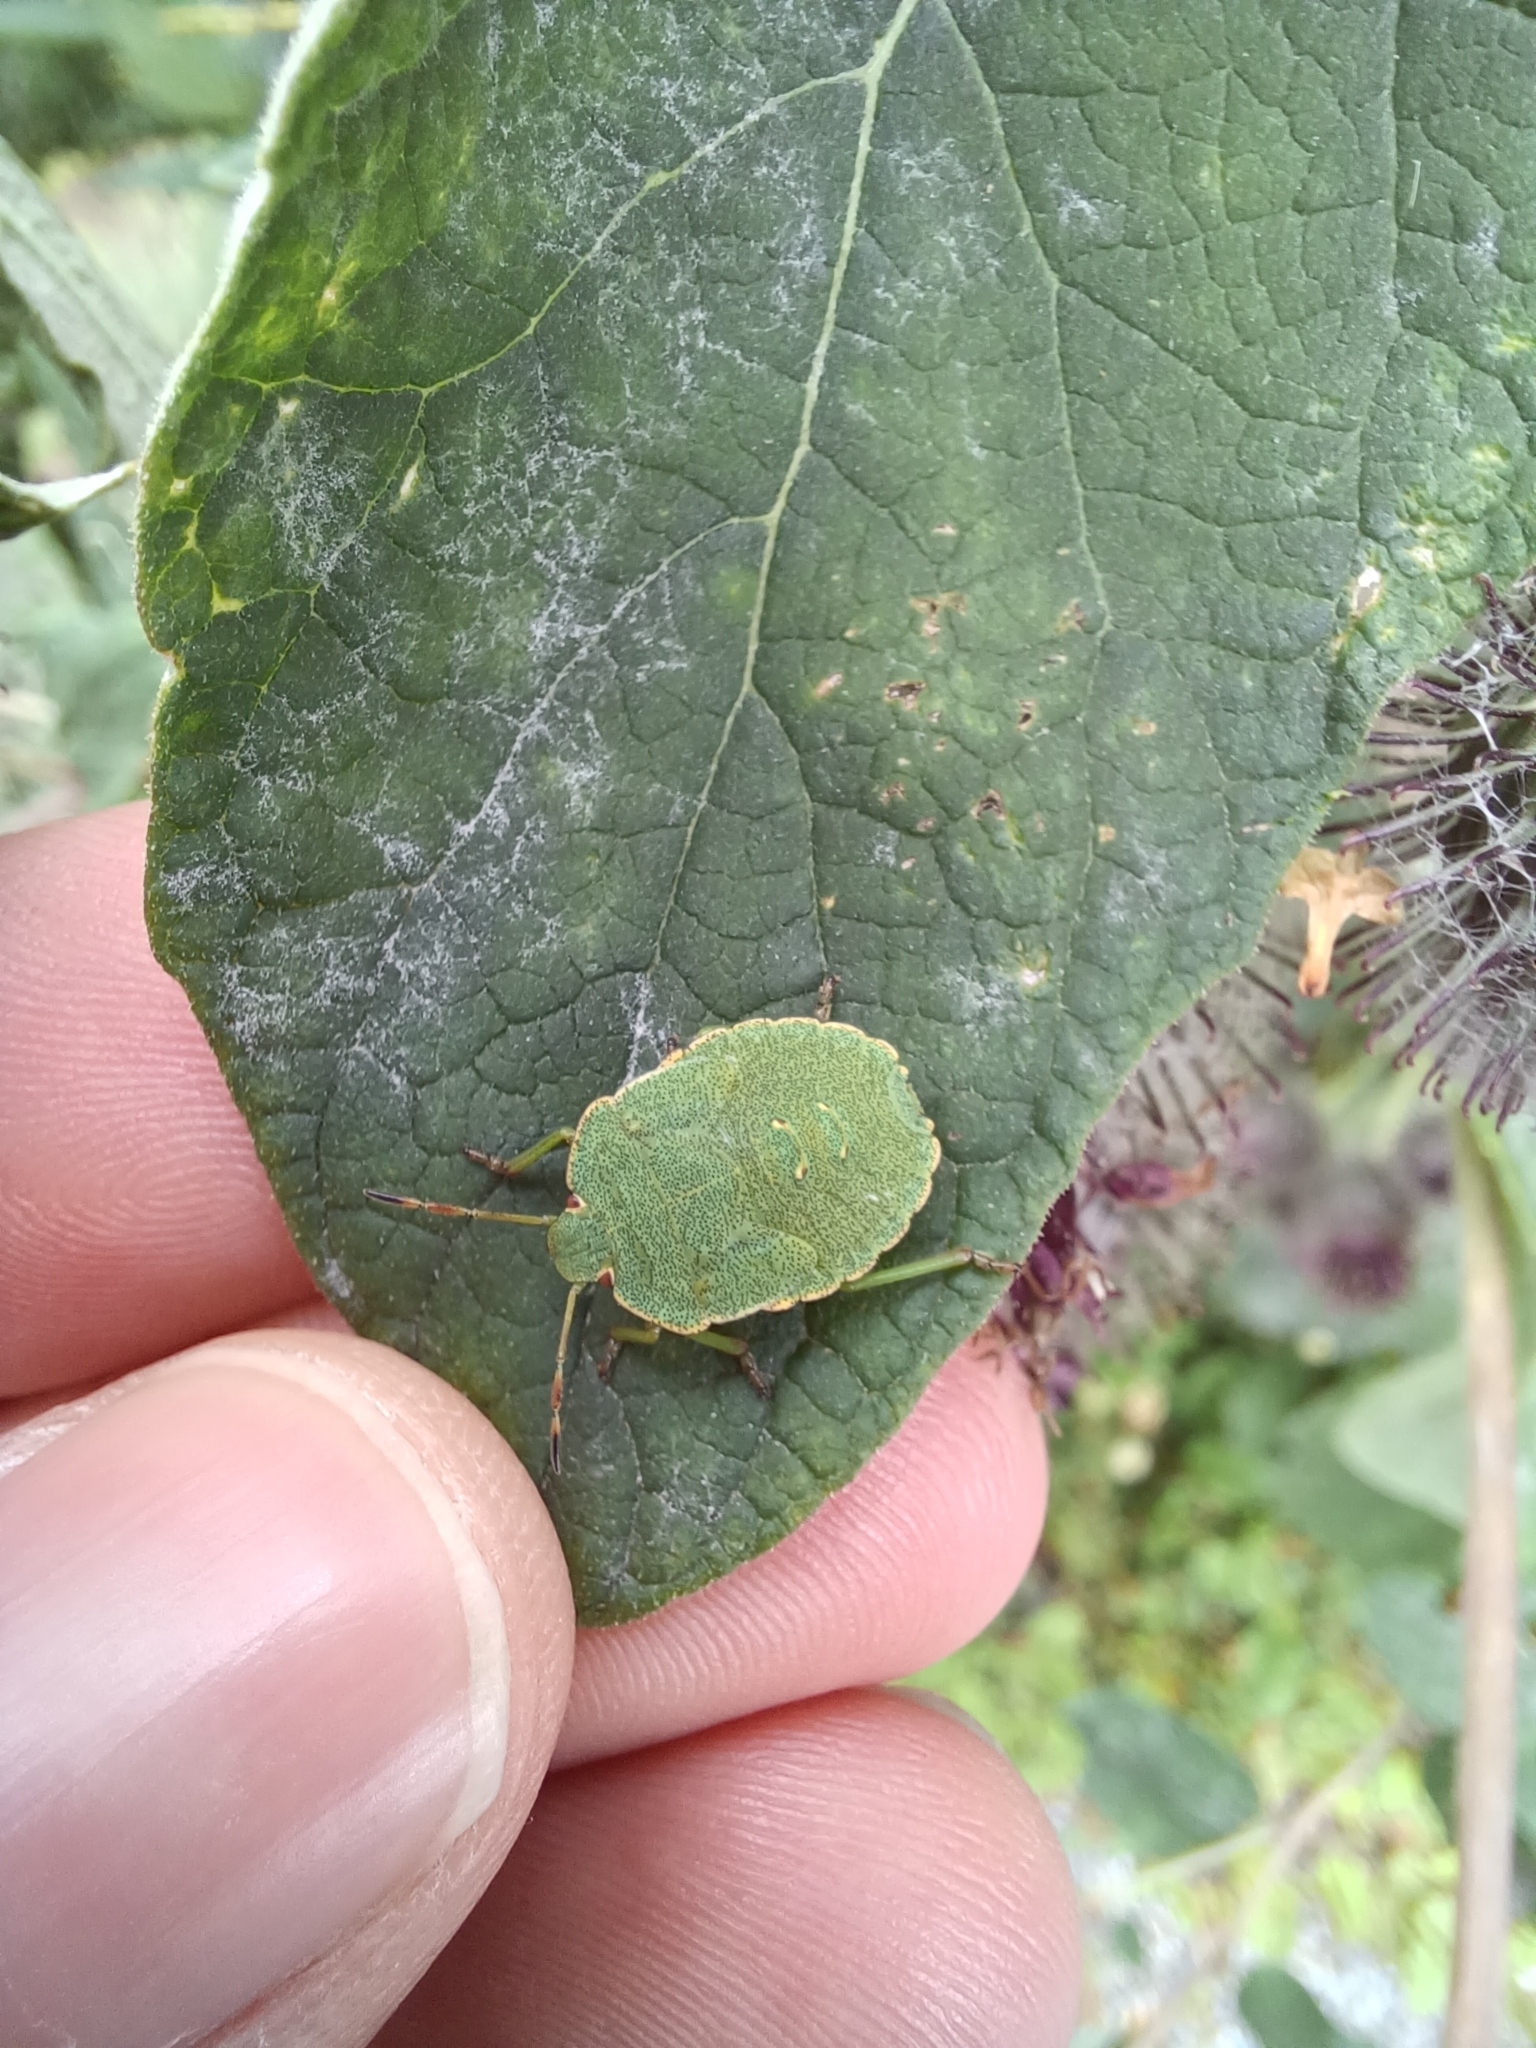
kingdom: Animalia
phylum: Arthropoda
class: Insecta
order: Hemiptera
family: Pentatomidae
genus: Palomena
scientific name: Palomena prasina
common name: Green shieldbug
